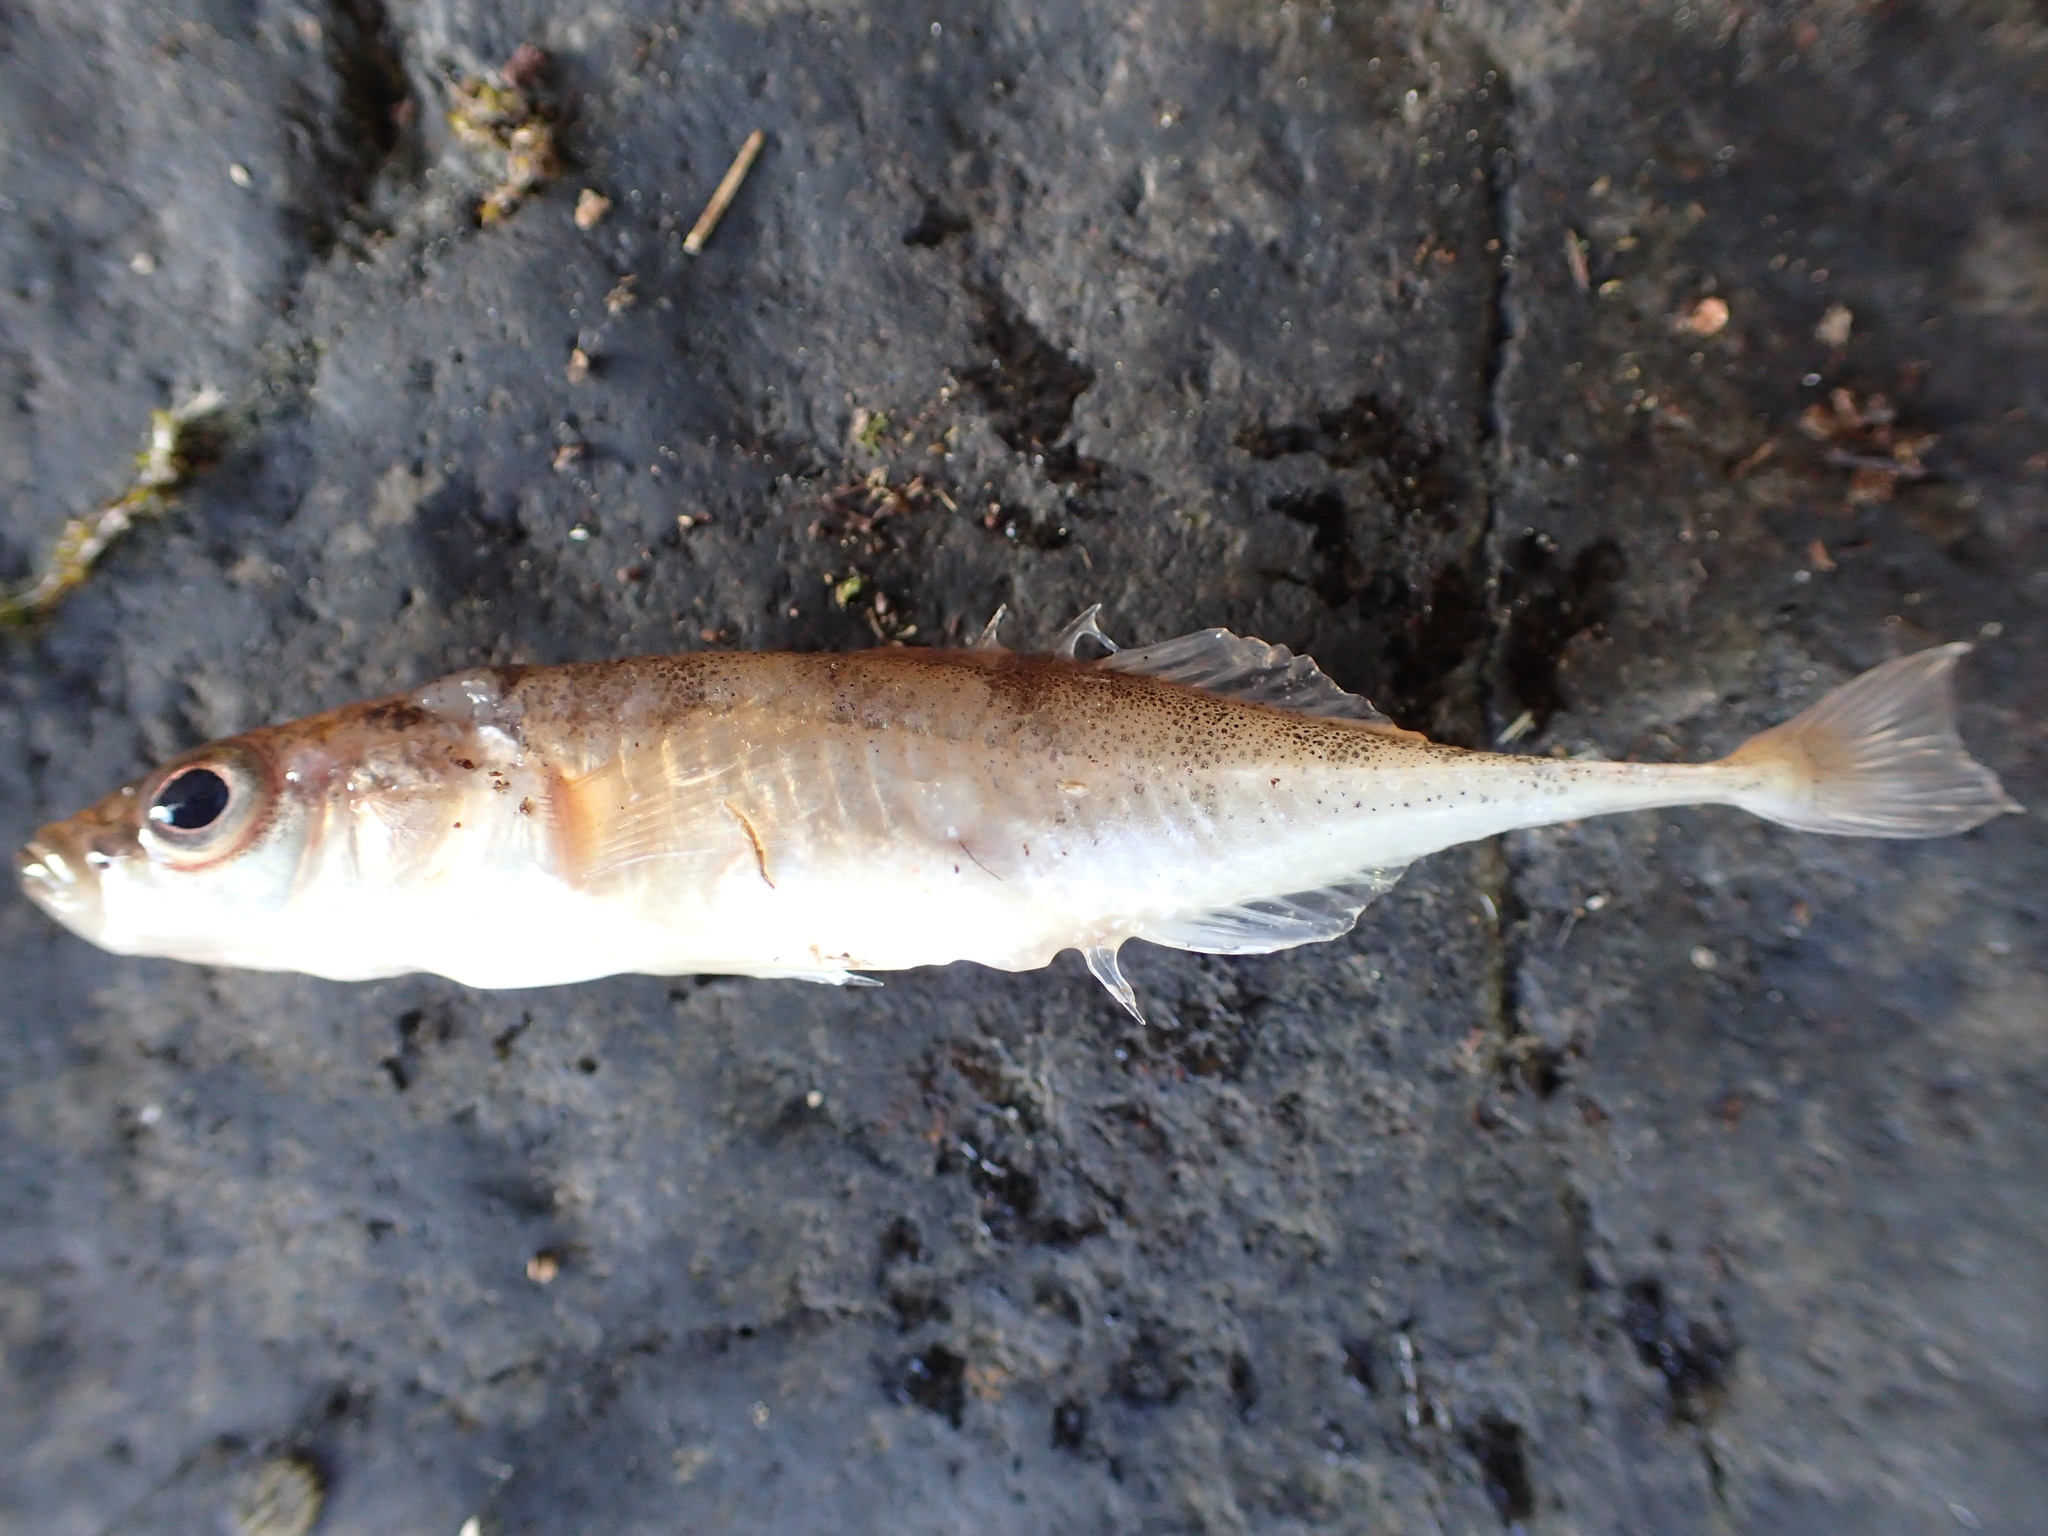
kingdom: Animalia
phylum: Chordata
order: Gasterosteiformes
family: Gasterosteidae
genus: Pungitius
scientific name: Pungitius pungitius
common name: Nine-spined stickleback
